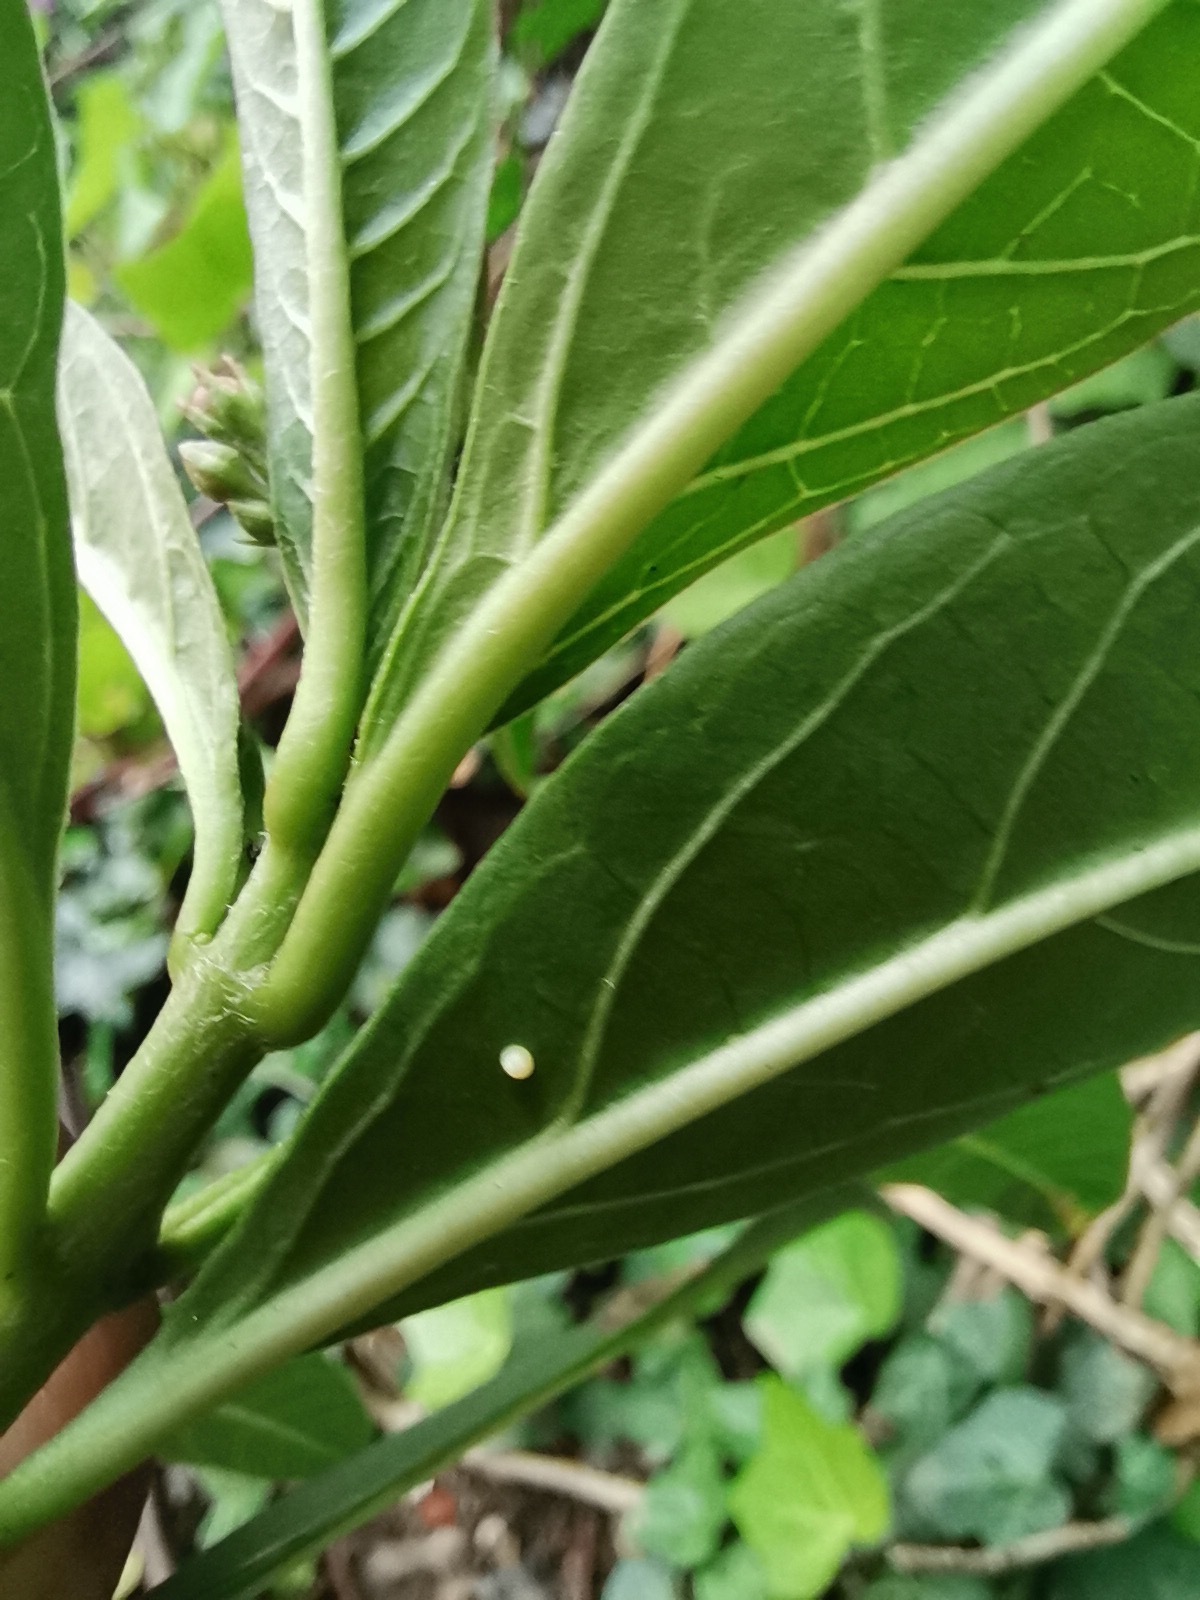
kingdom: Animalia
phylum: Arthropoda
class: Insecta
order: Lepidoptera
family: Nymphalidae
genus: Danaus
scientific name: Danaus plexippus
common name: Monarch
